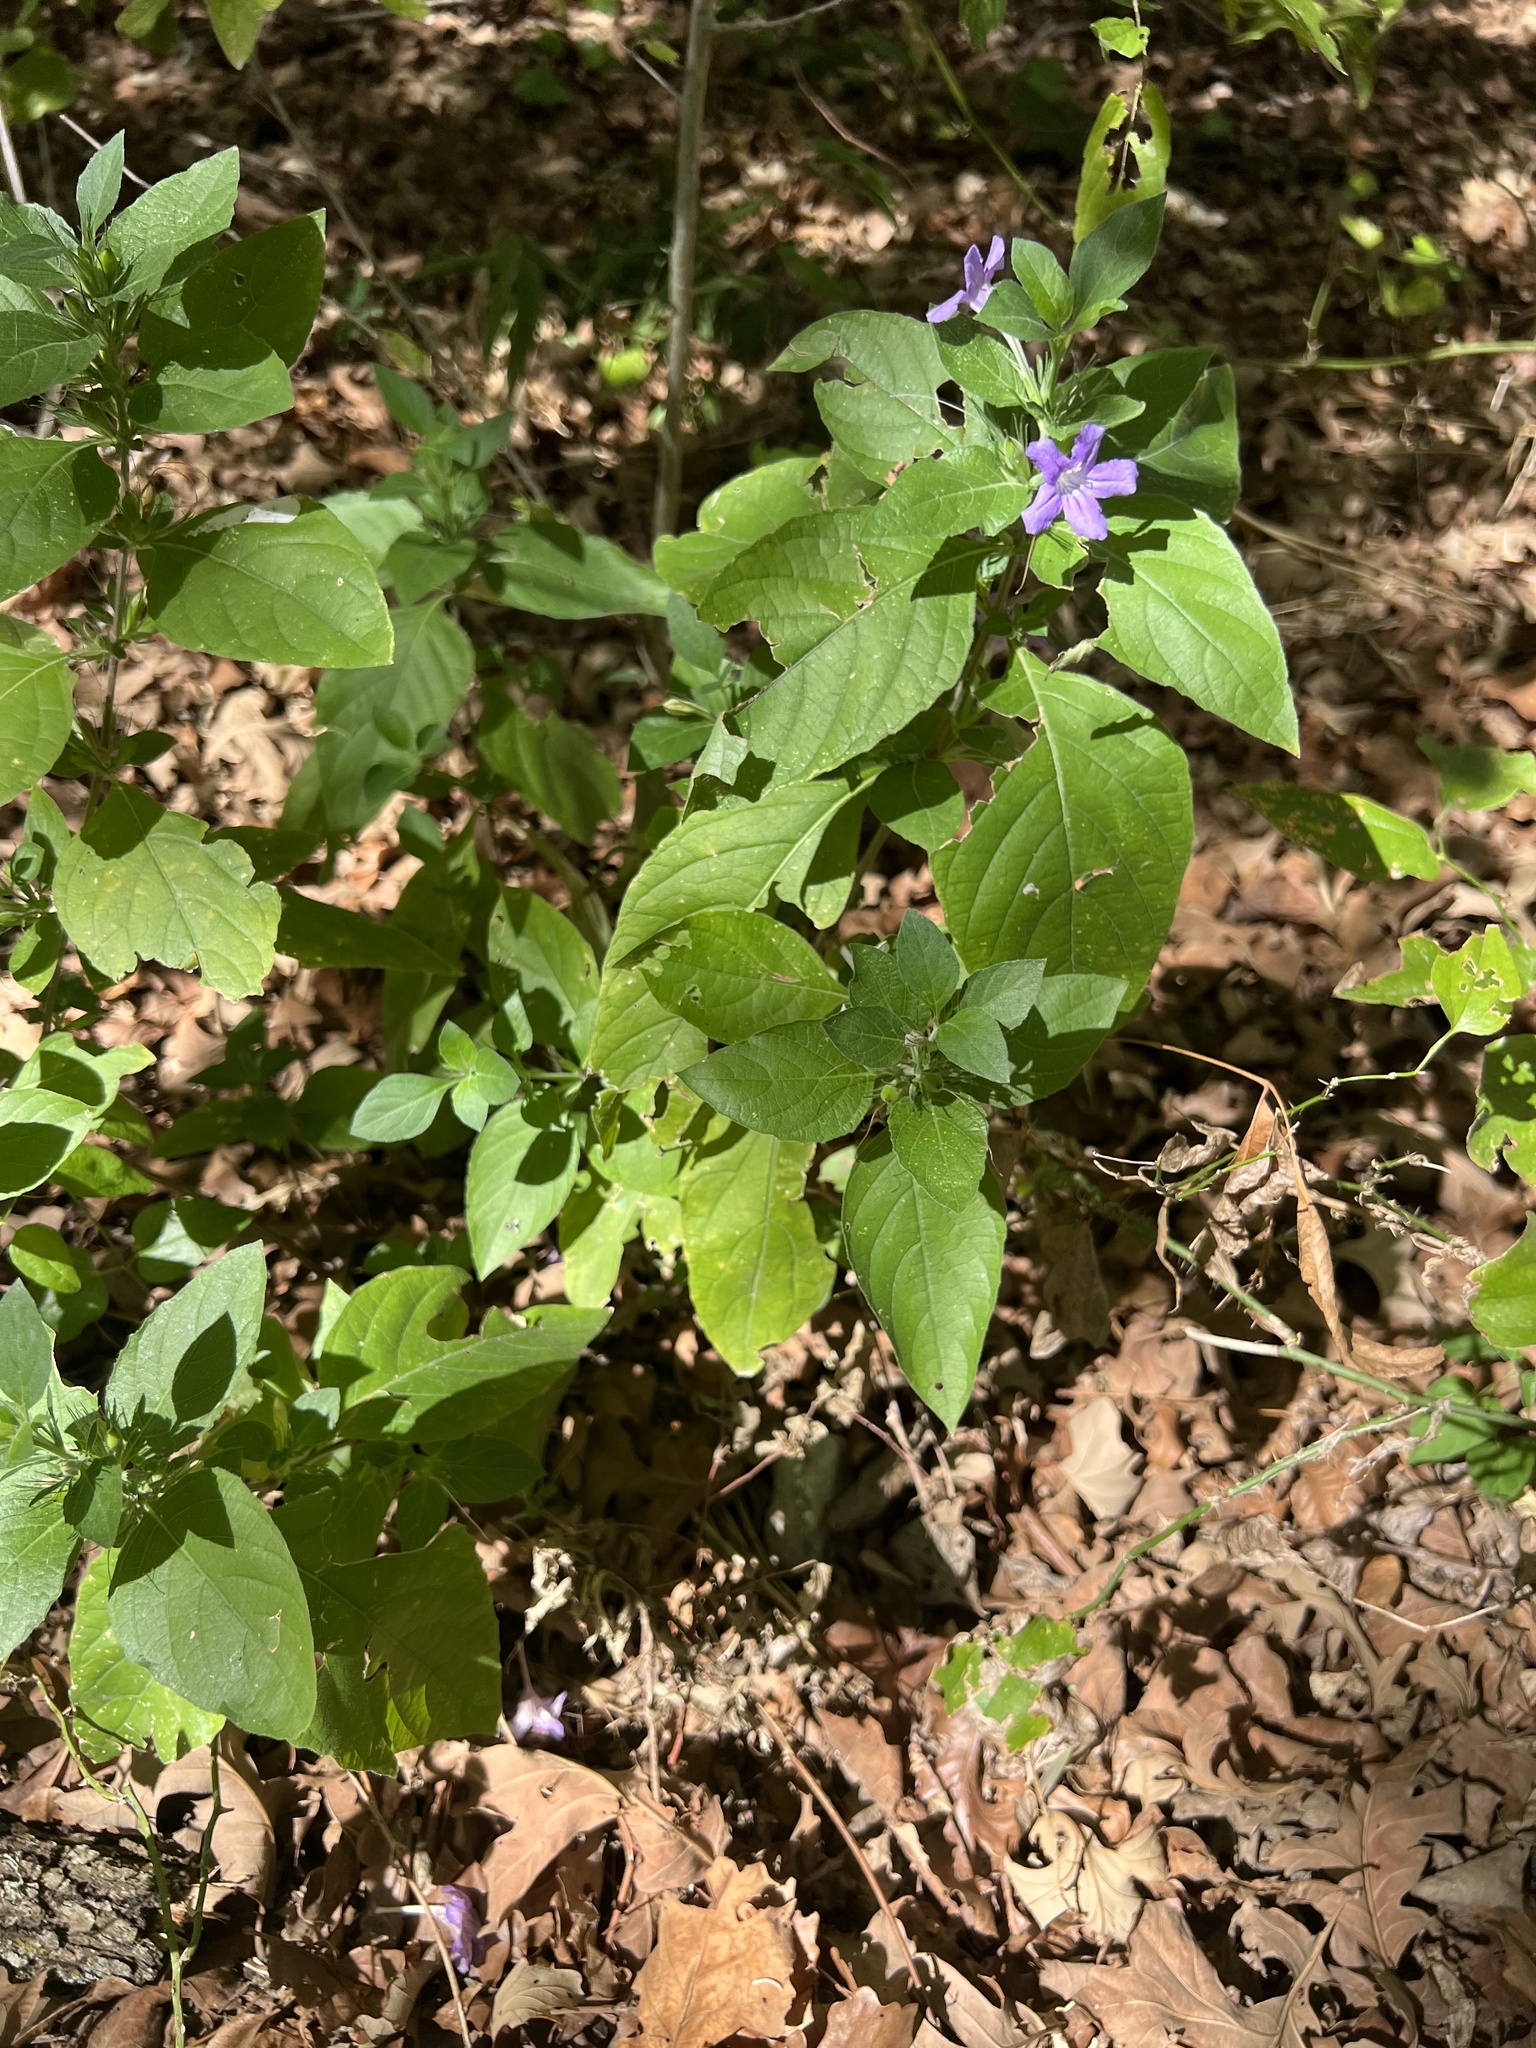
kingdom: Plantae
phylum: Tracheophyta
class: Magnoliopsida
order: Lamiales
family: Acanthaceae
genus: Ruellia
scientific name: Ruellia drummondiana
